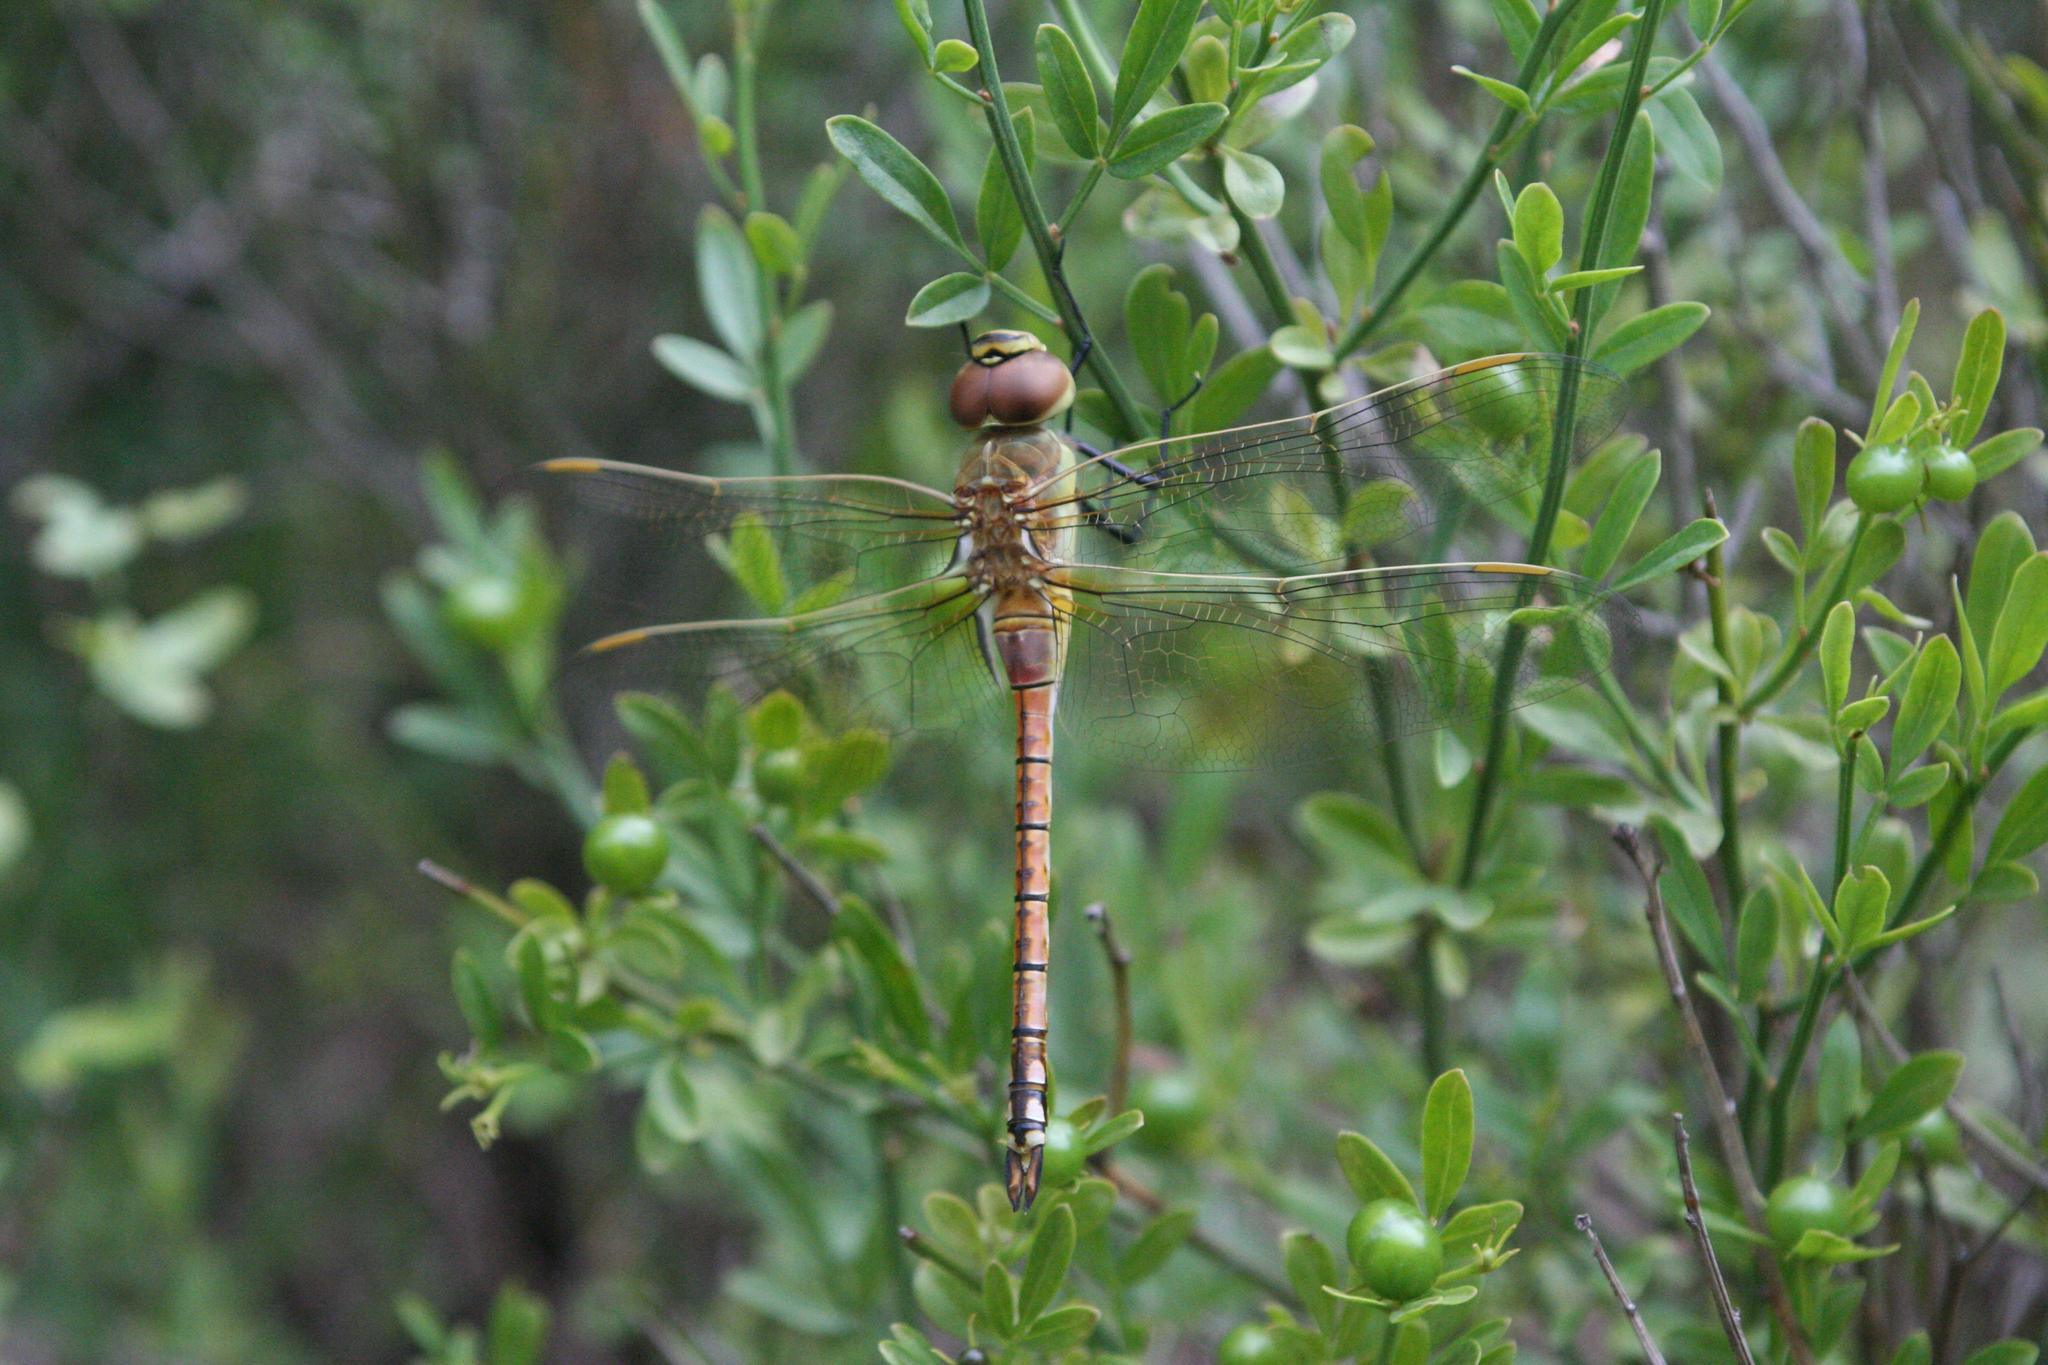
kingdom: Animalia
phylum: Arthropoda
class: Insecta
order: Odonata
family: Aeshnidae
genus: Anax
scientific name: Anax ephippiger
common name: Vagrant emperor
